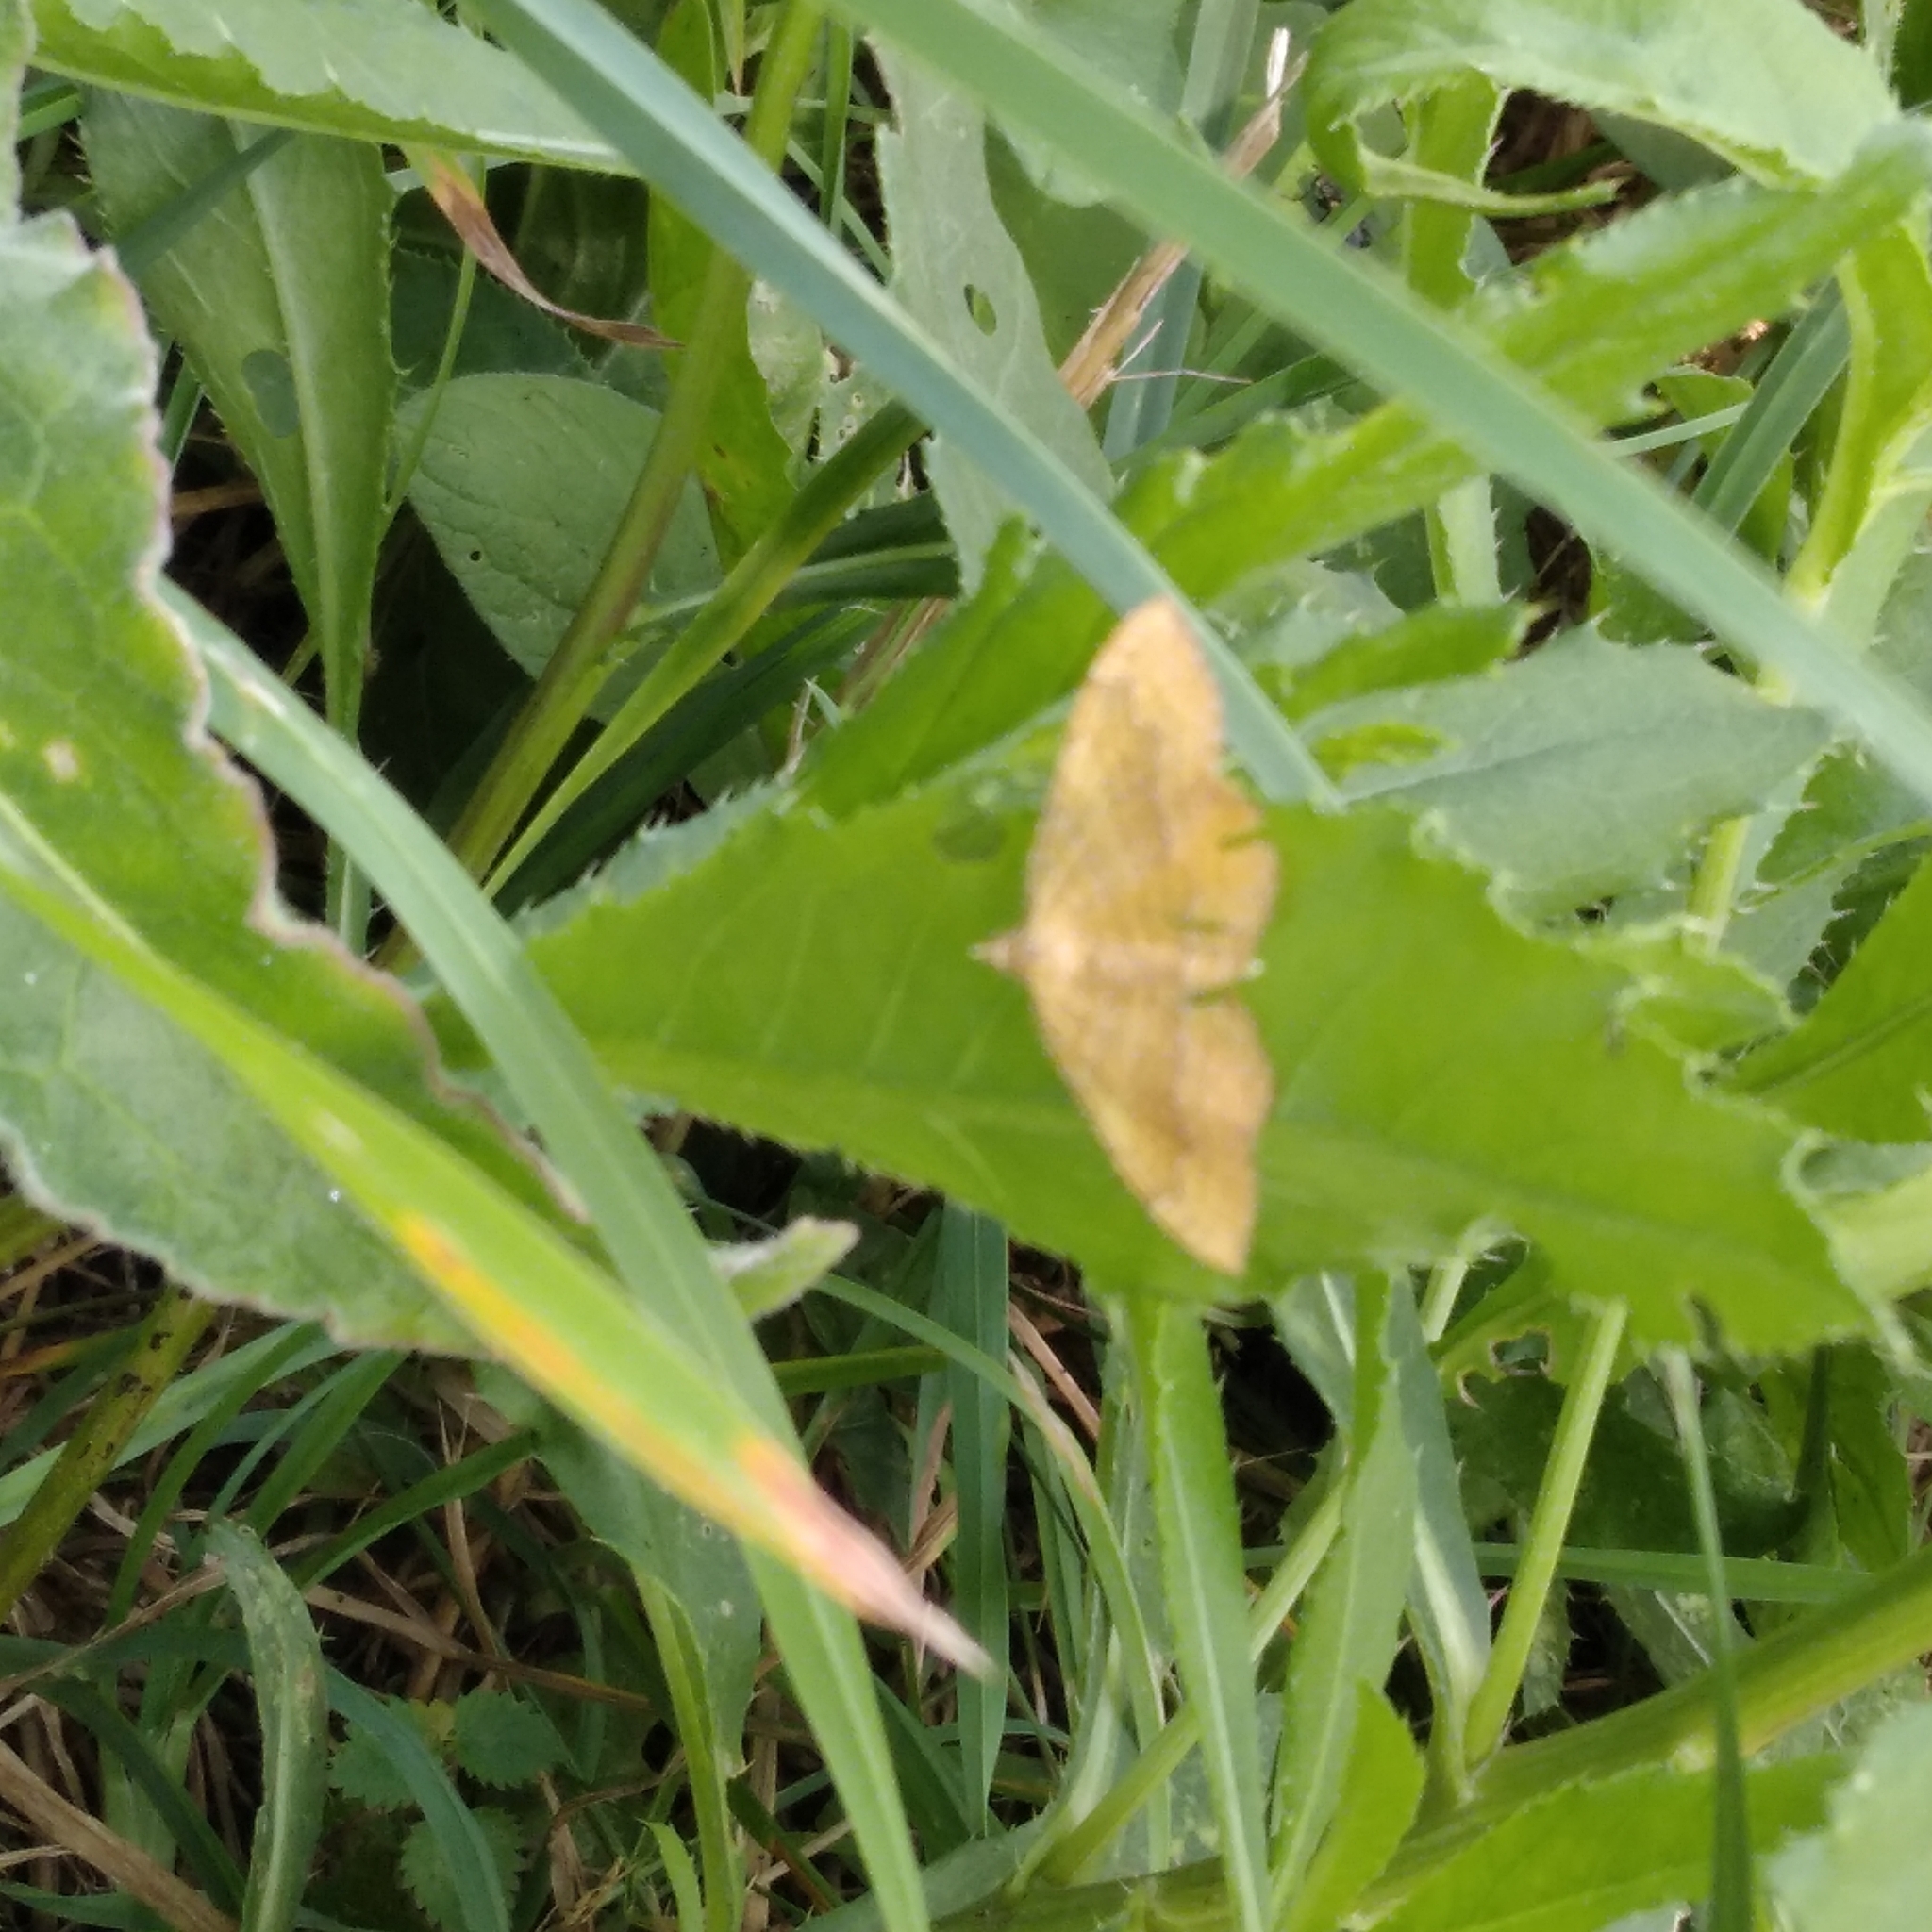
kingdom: Animalia
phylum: Arthropoda
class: Insecta
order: Lepidoptera
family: Geometridae
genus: Camptogramma
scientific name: Camptogramma bilineata
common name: Yellow shell
